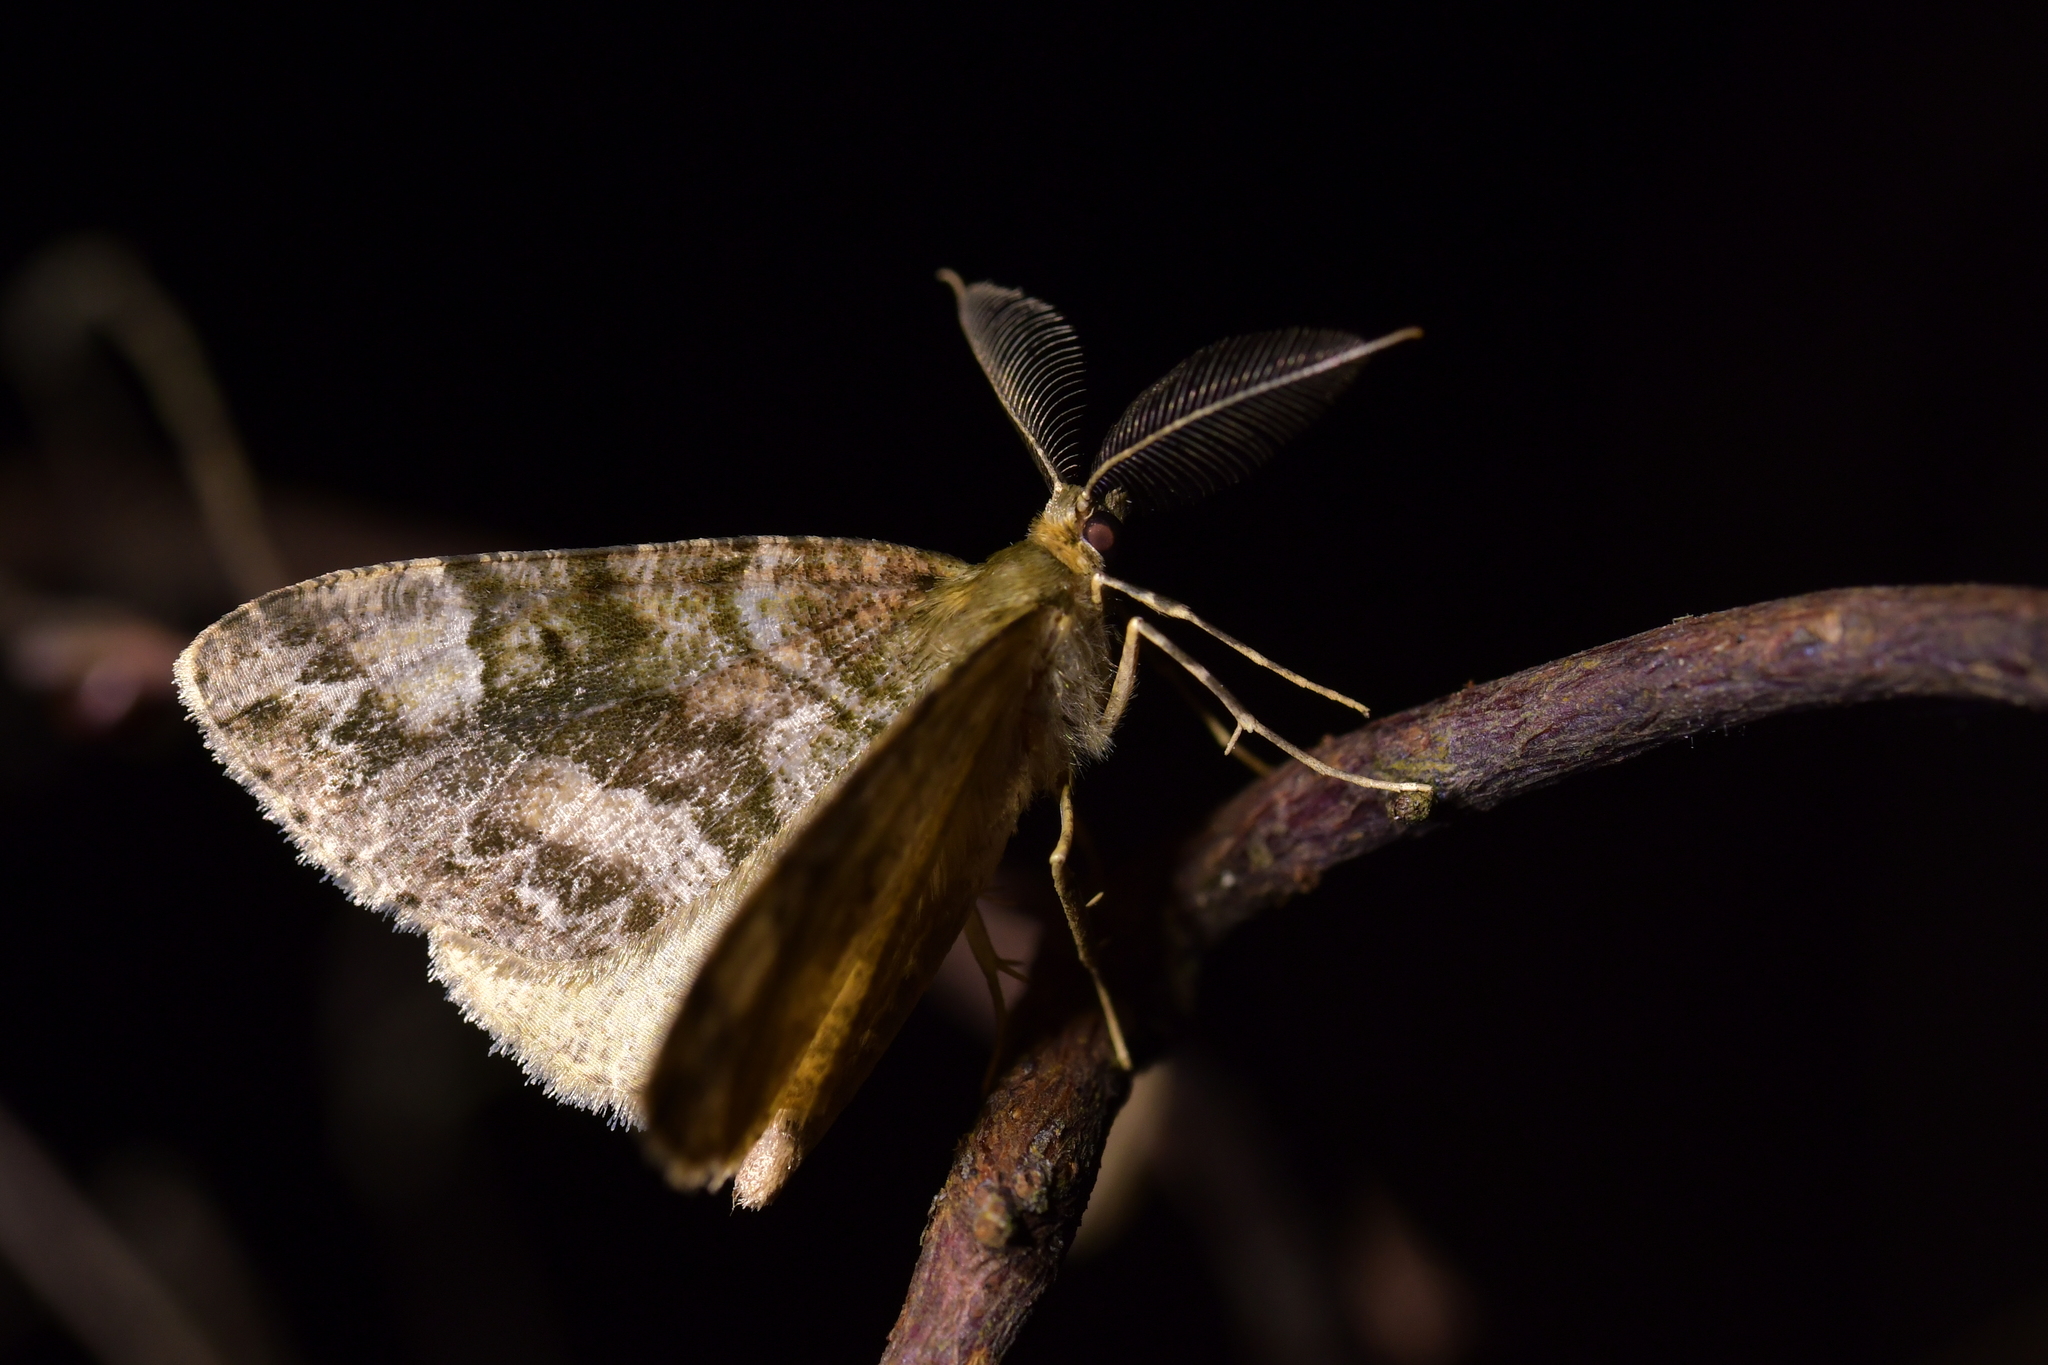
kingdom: Animalia
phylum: Arthropoda
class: Insecta
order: Lepidoptera
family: Geometridae
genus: Pseudocoremia
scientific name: Pseudocoremia productata
